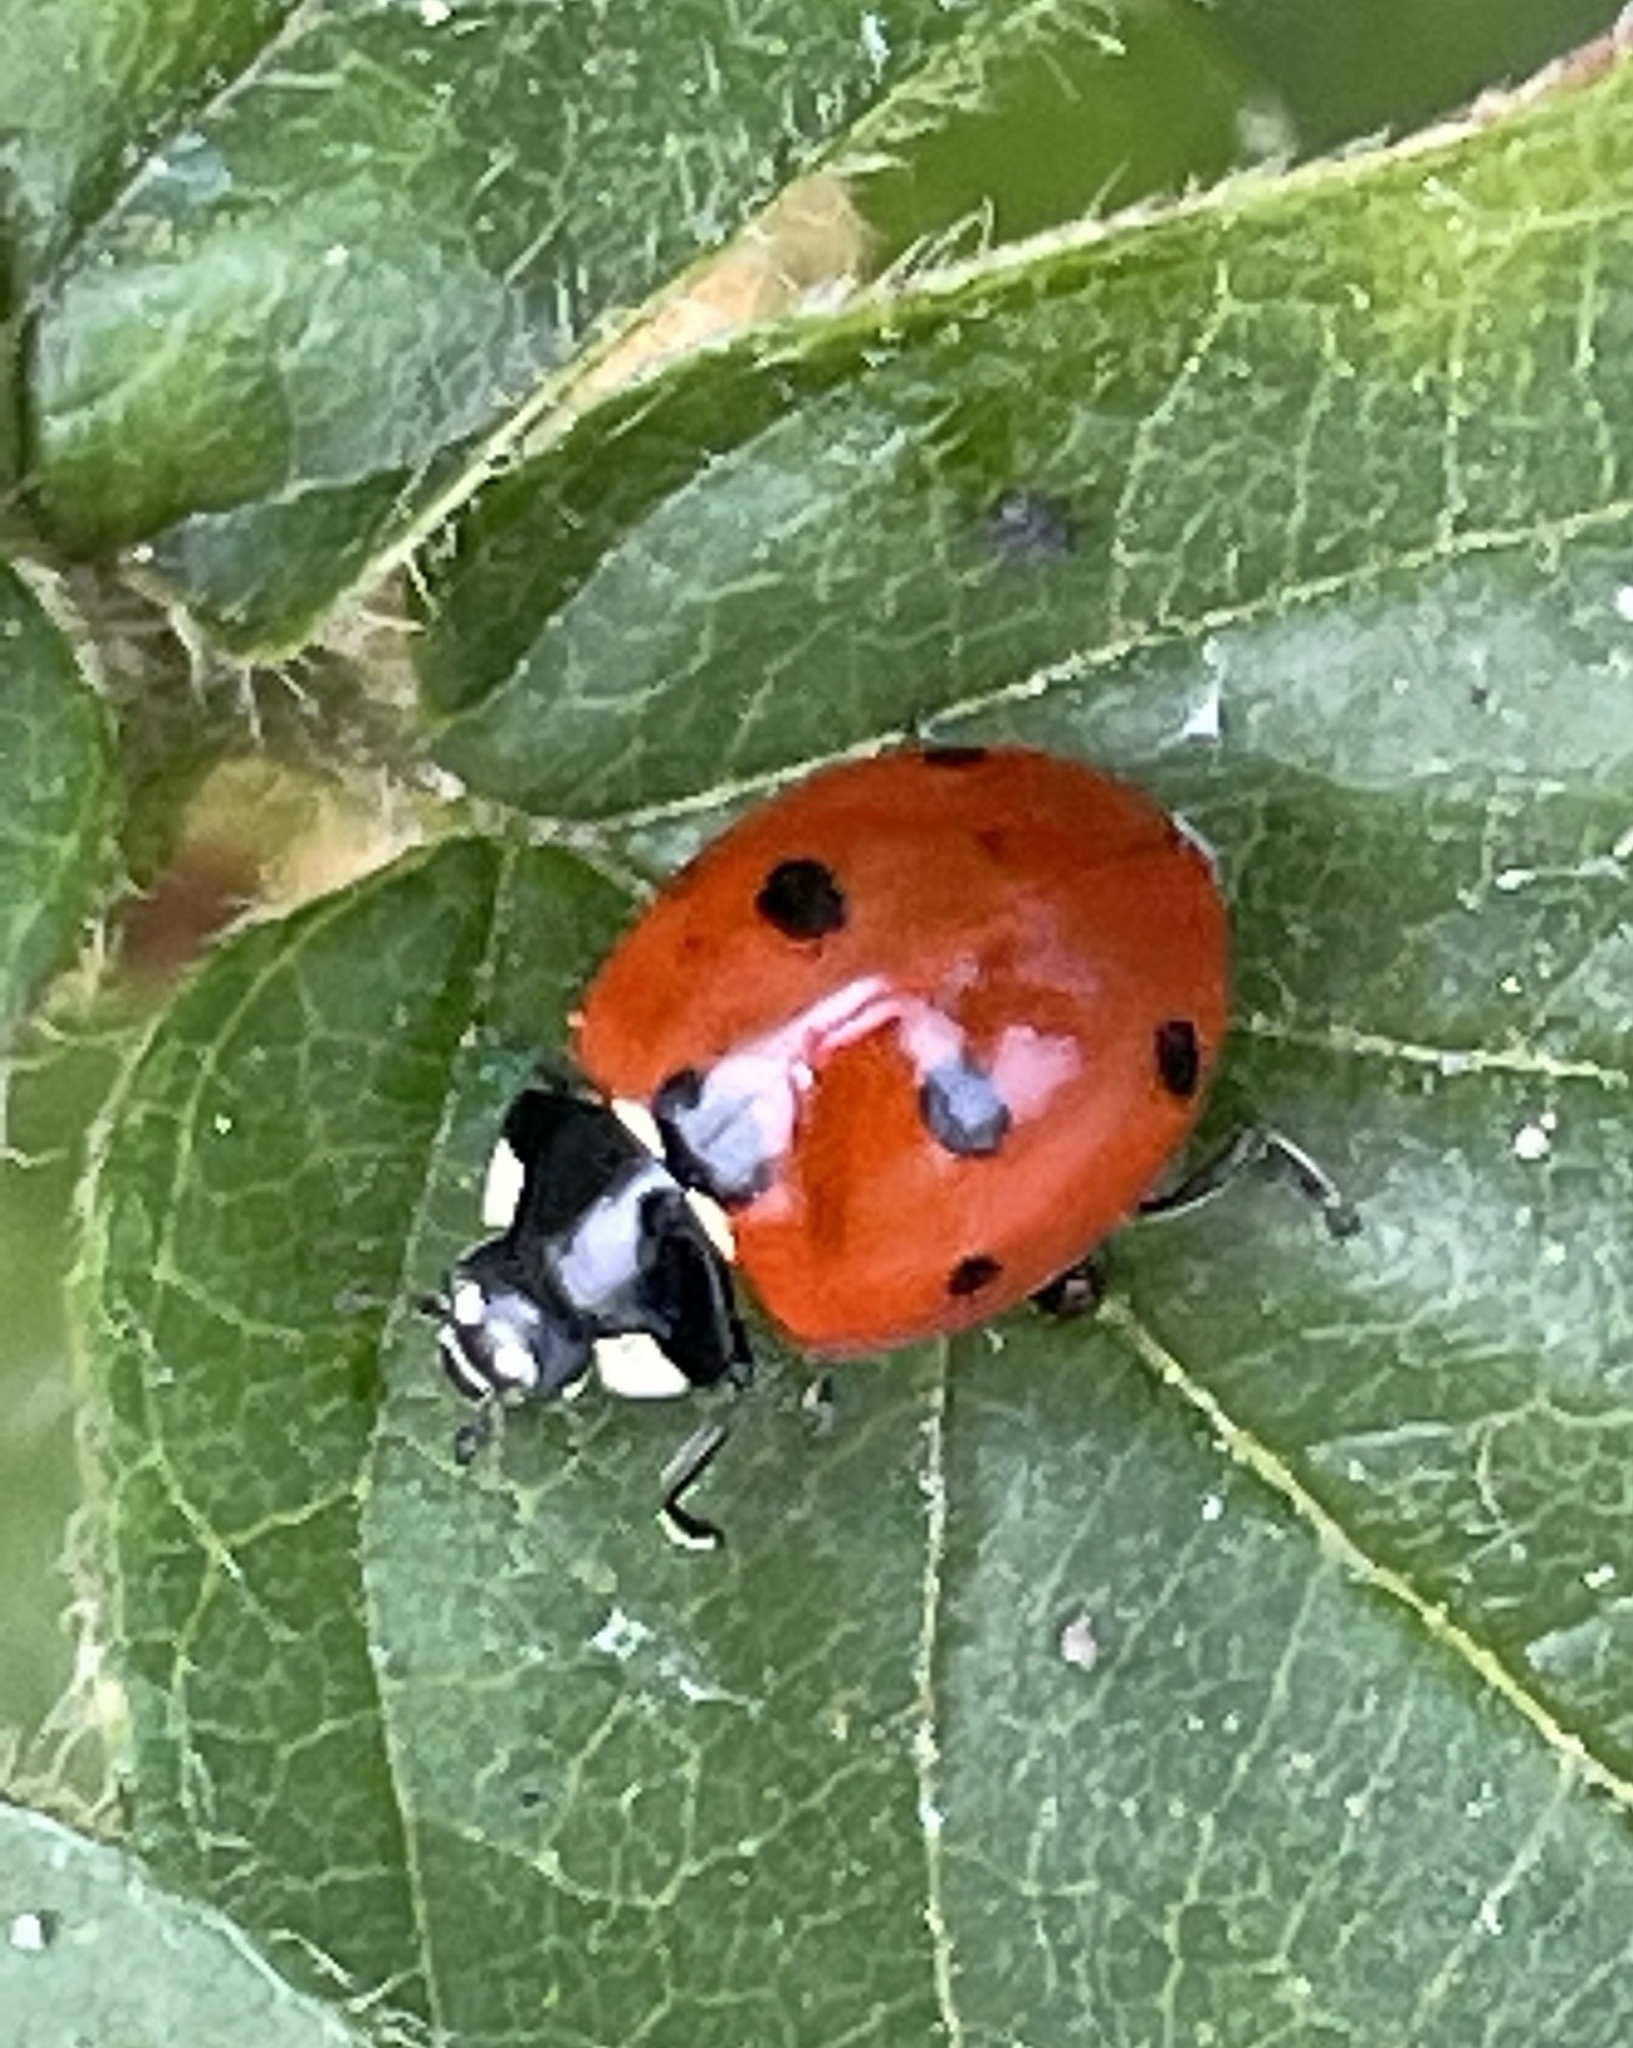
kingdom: Animalia
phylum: Arthropoda
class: Insecta
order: Coleoptera
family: Coccinellidae
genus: Coccinella
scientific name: Coccinella septempunctata
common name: Sevenspotted lady beetle
